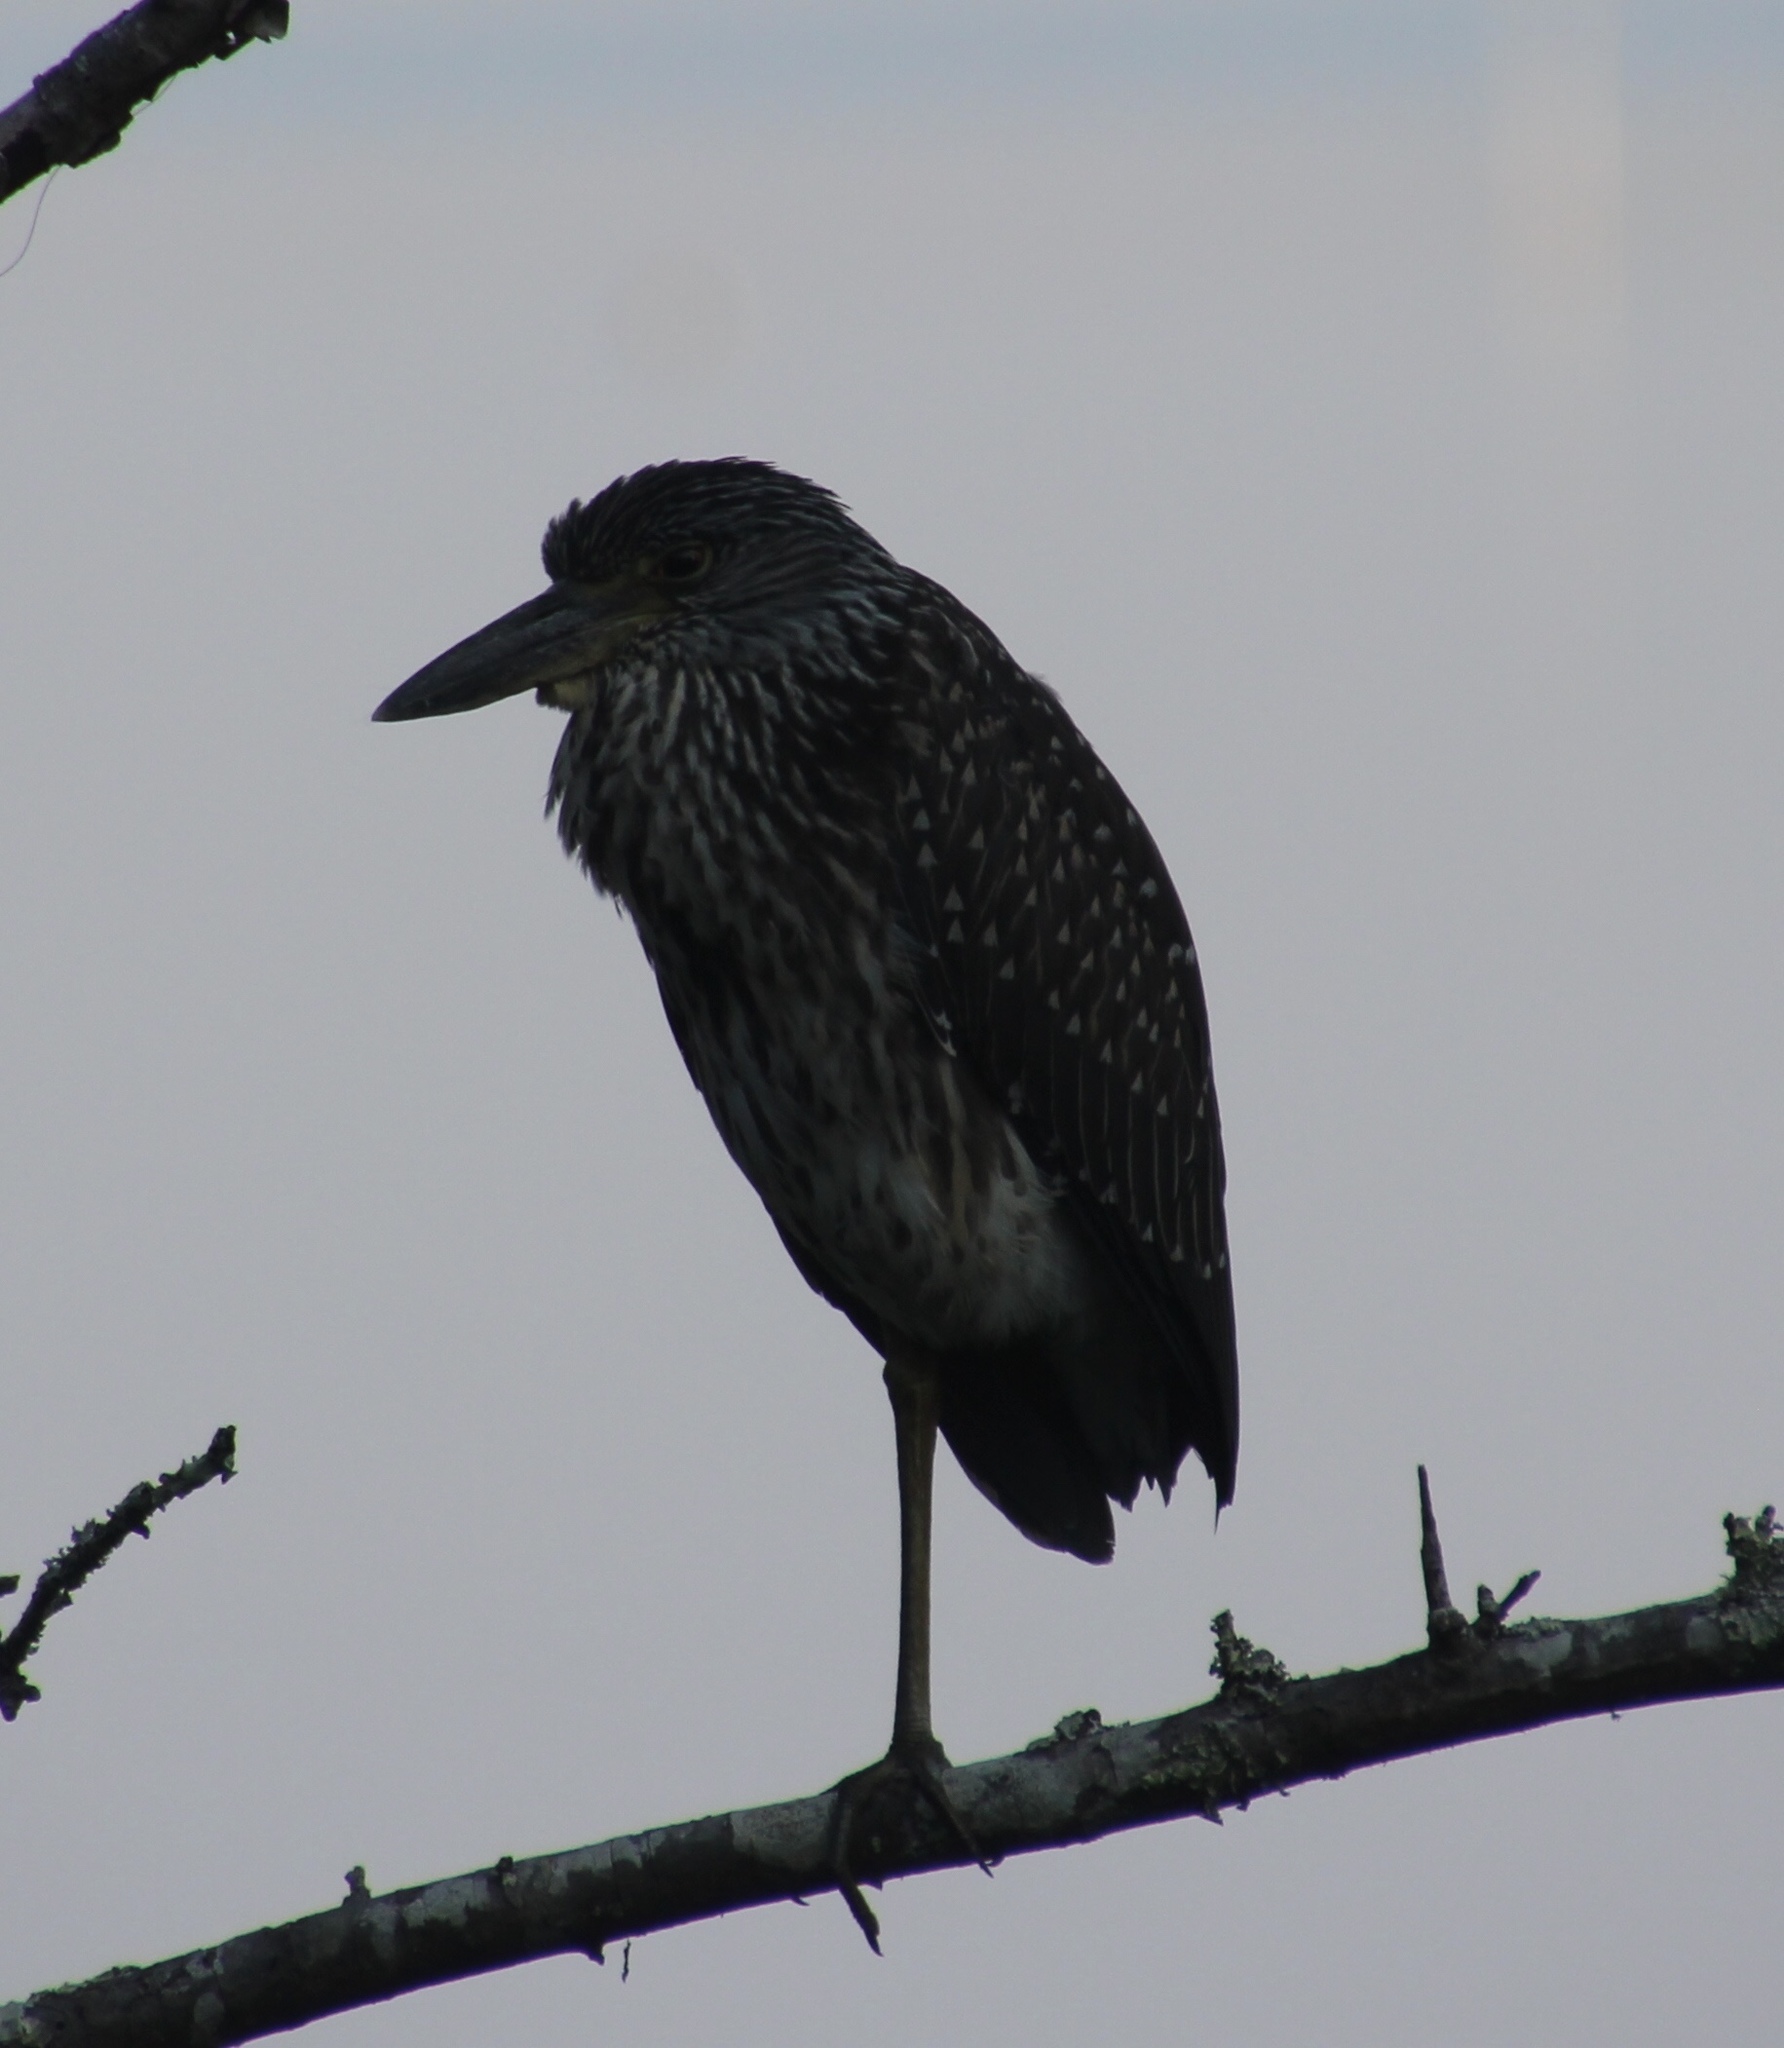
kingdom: Animalia
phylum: Chordata
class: Aves
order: Pelecaniformes
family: Ardeidae
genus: Nyctanassa
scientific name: Nyctanassa violacea
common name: Yellow-crowned night heron
